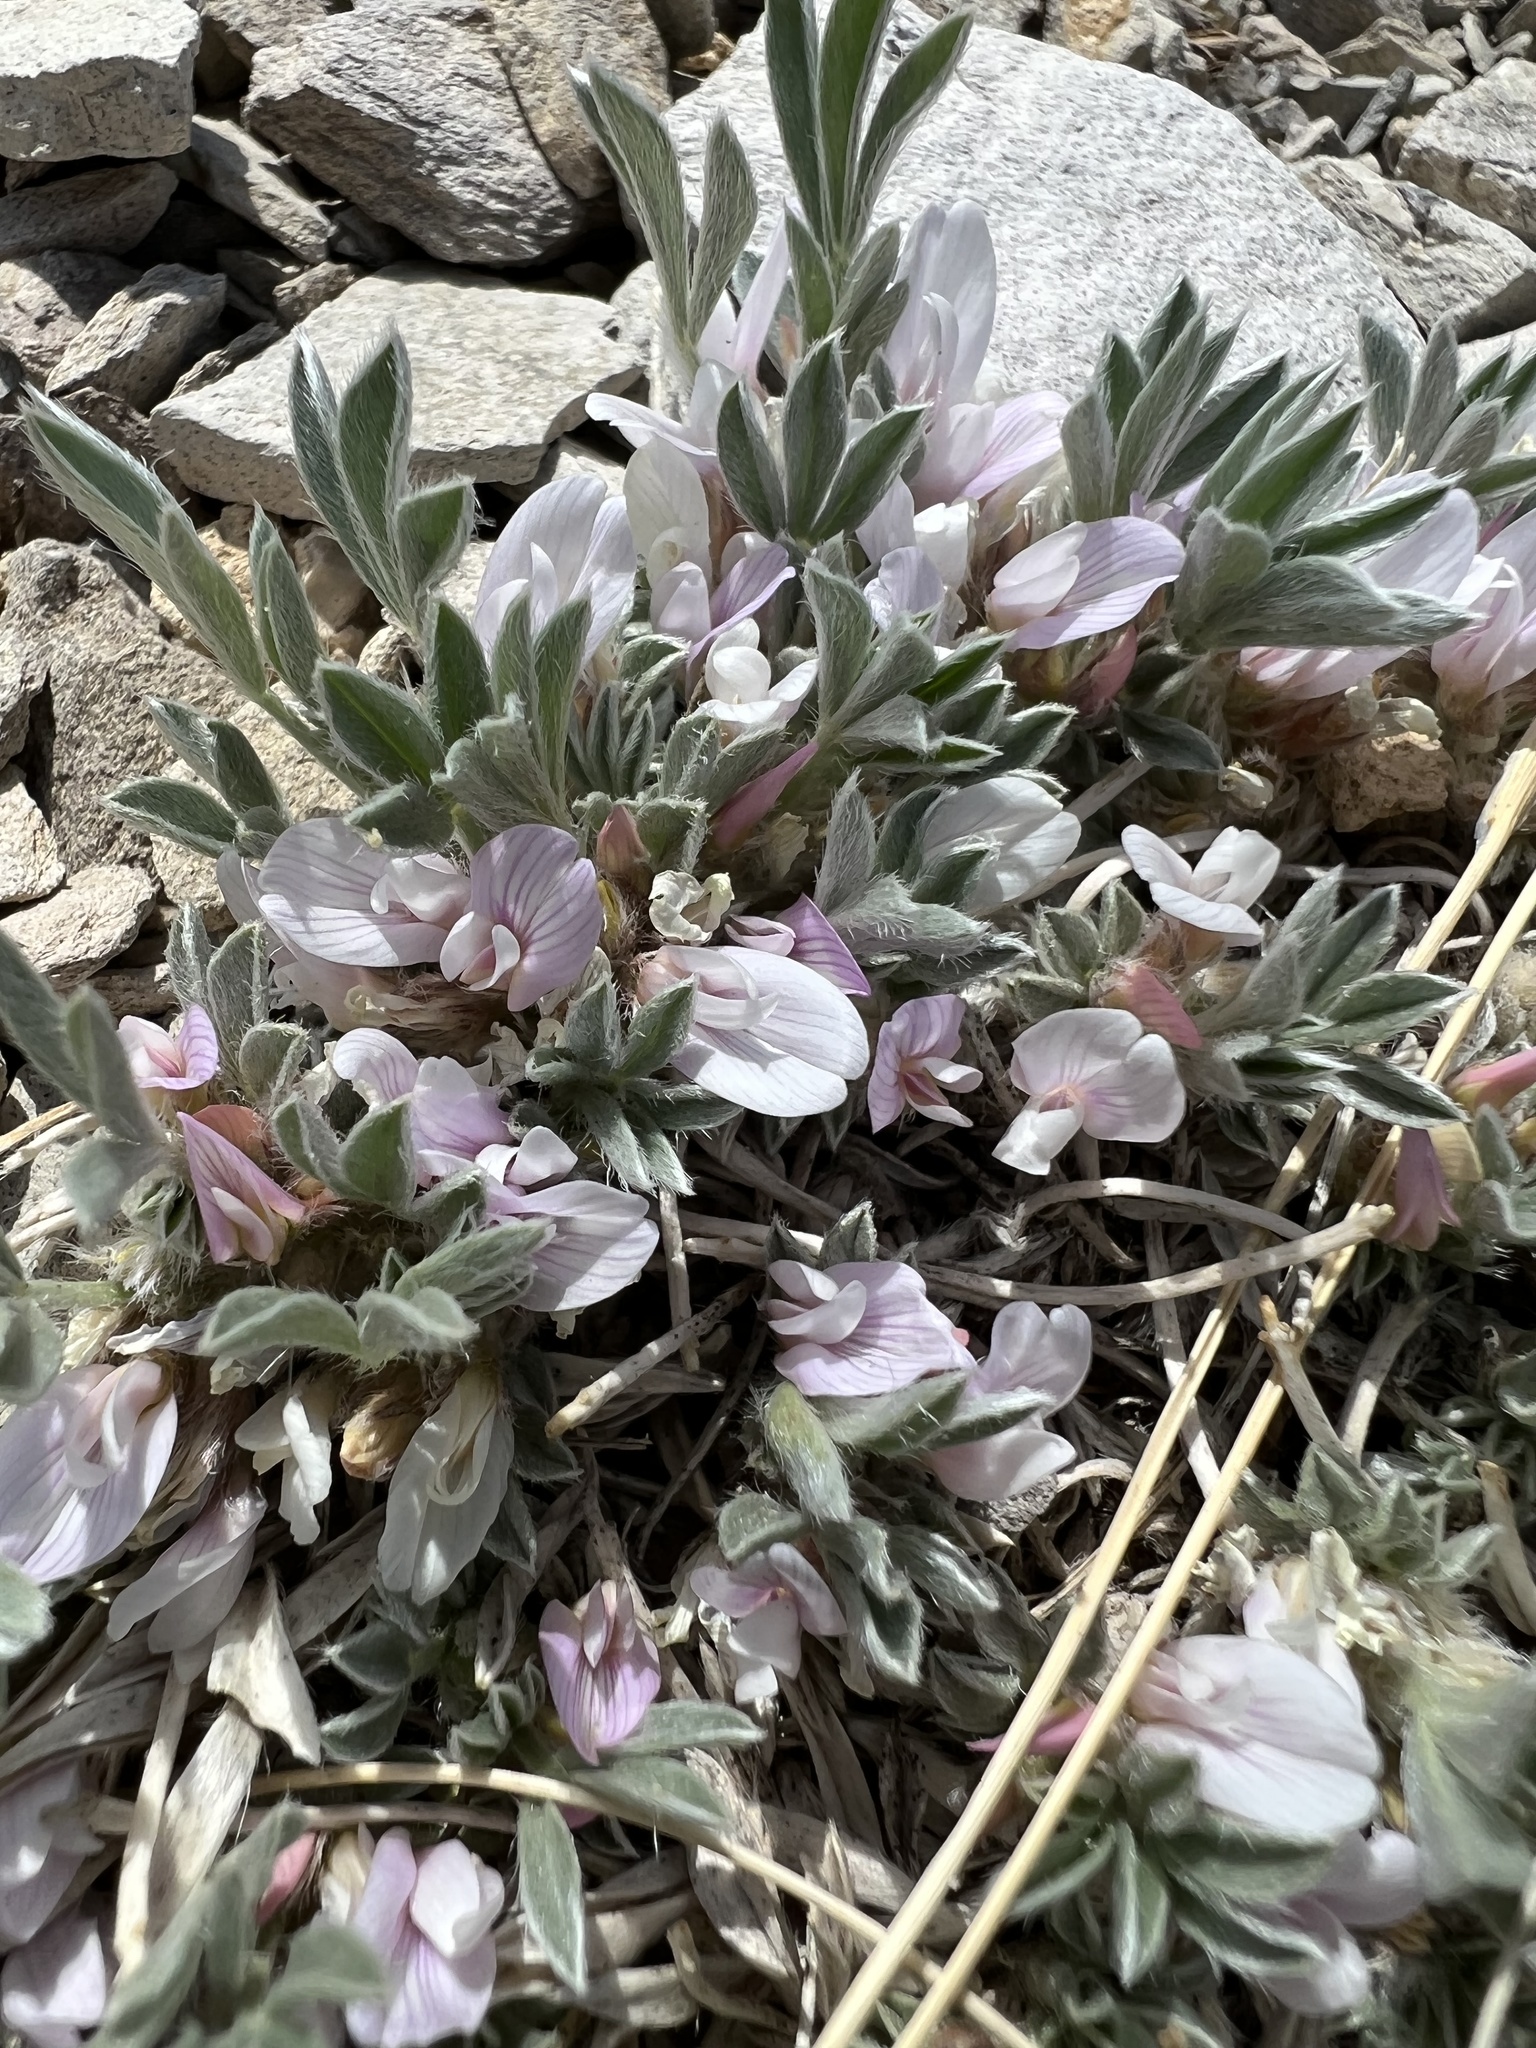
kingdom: Plantae
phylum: Tracheophyta
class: Magnoliopsida
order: Fabales
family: Fabaceae
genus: Astragalus
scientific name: Astragalus tridactylicus
